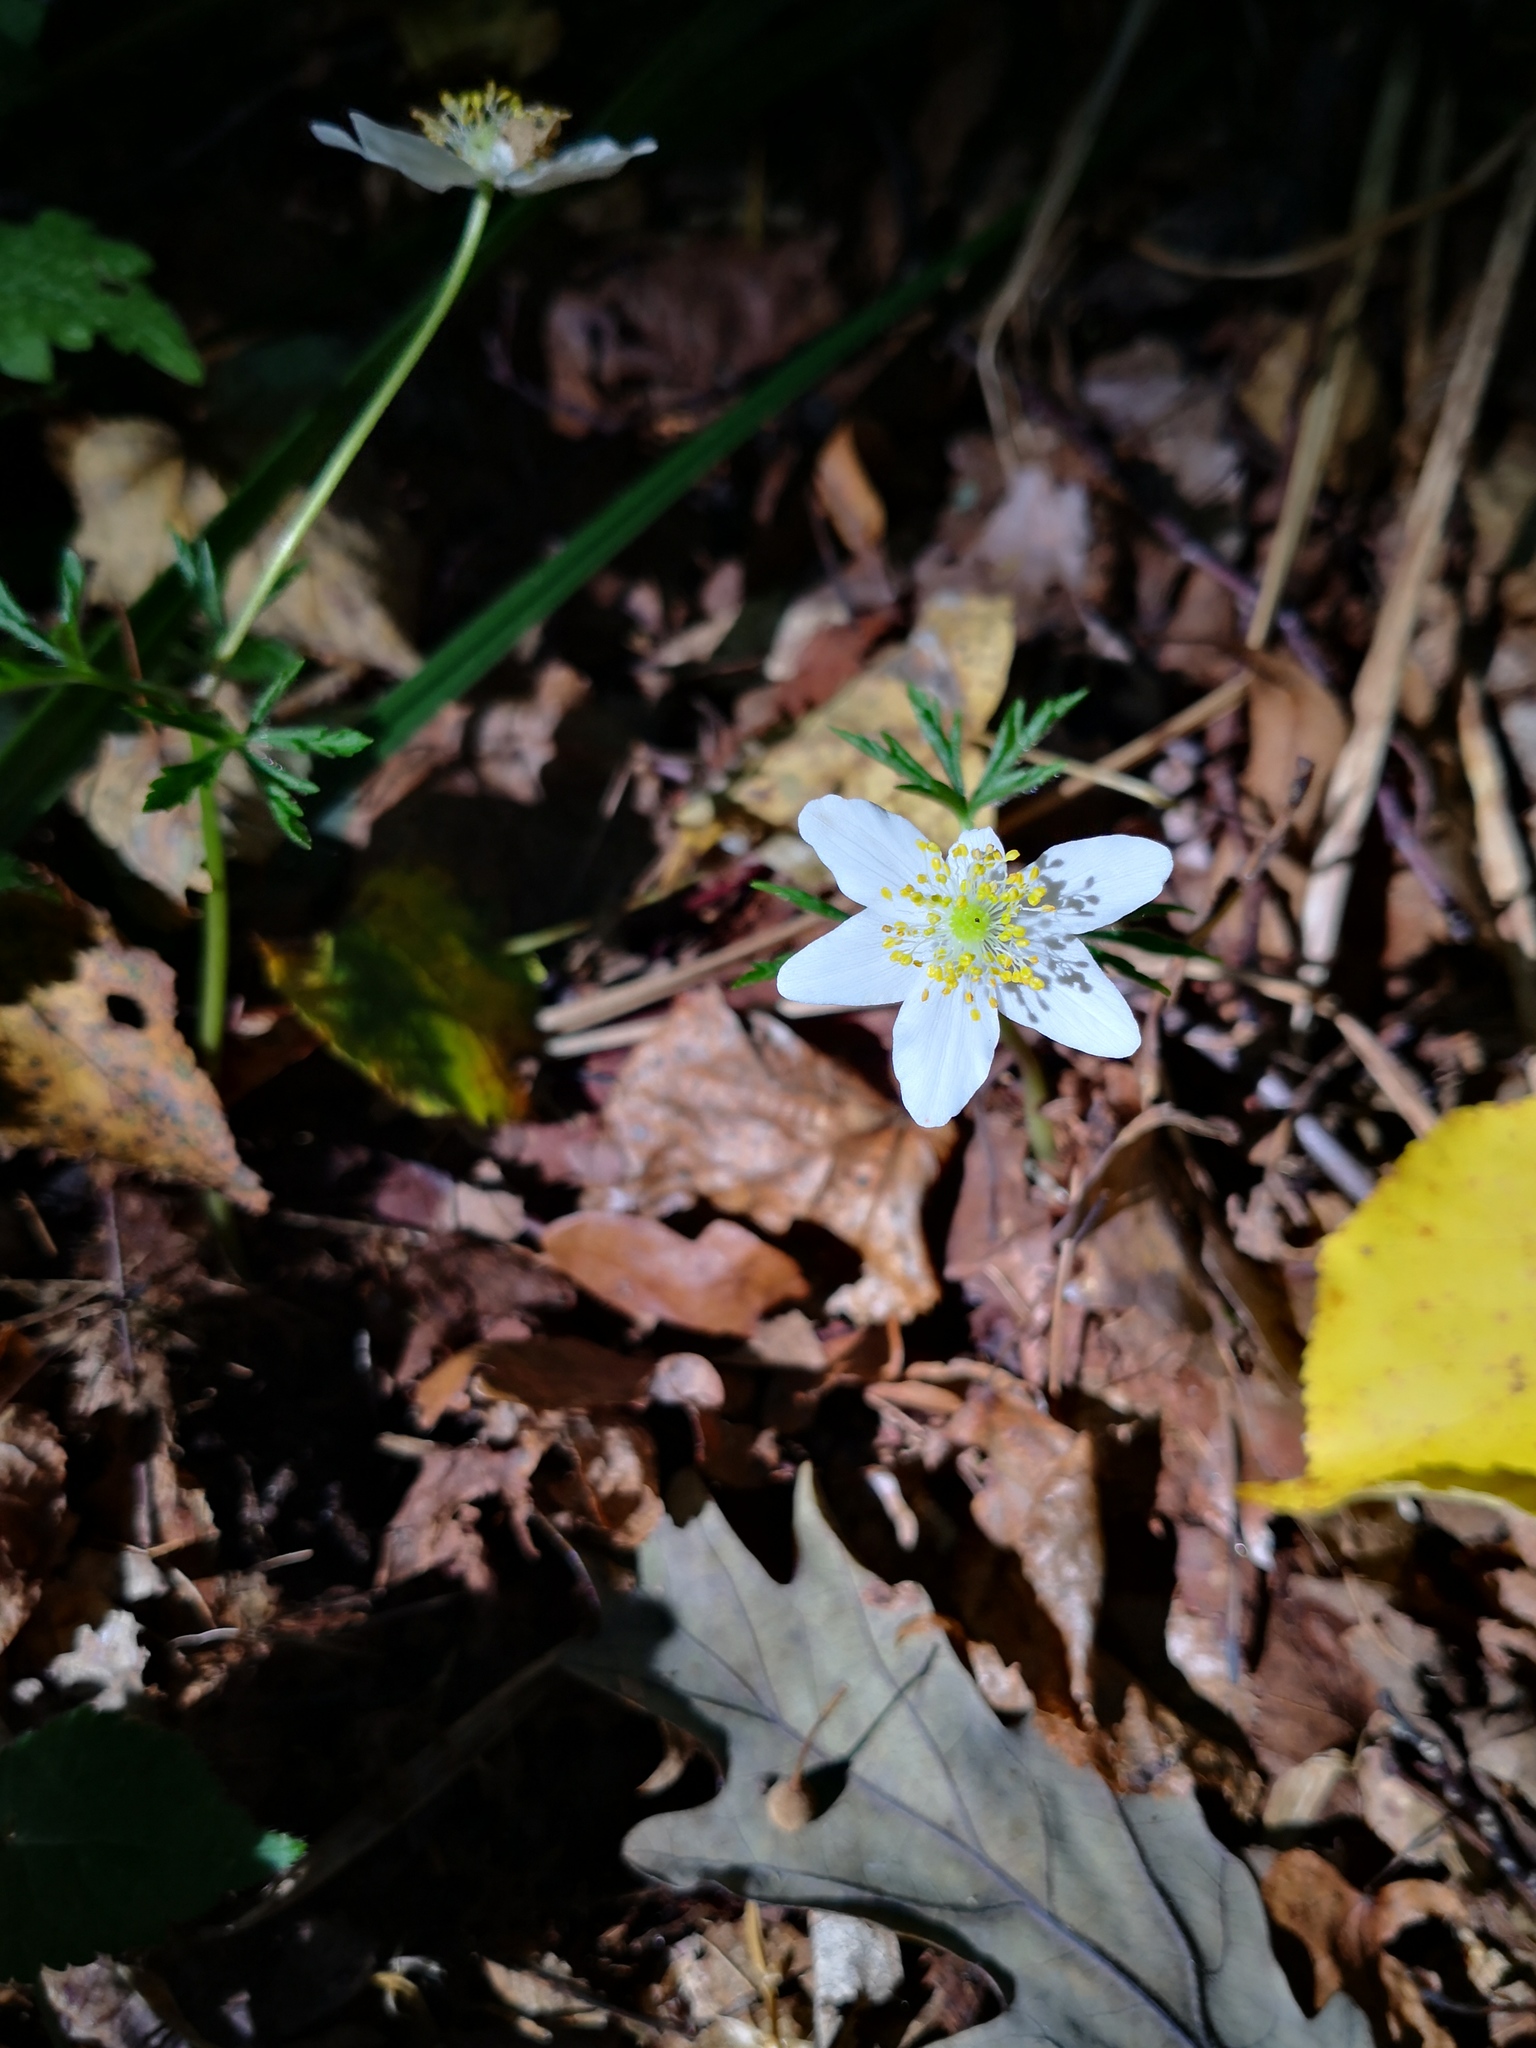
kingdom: Plantae
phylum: Tracheophyta
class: Magnoliopsida
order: Ranunculales
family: Ranunculaceae
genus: Anemone
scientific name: Anemone nemorosa
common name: Wood anemone
